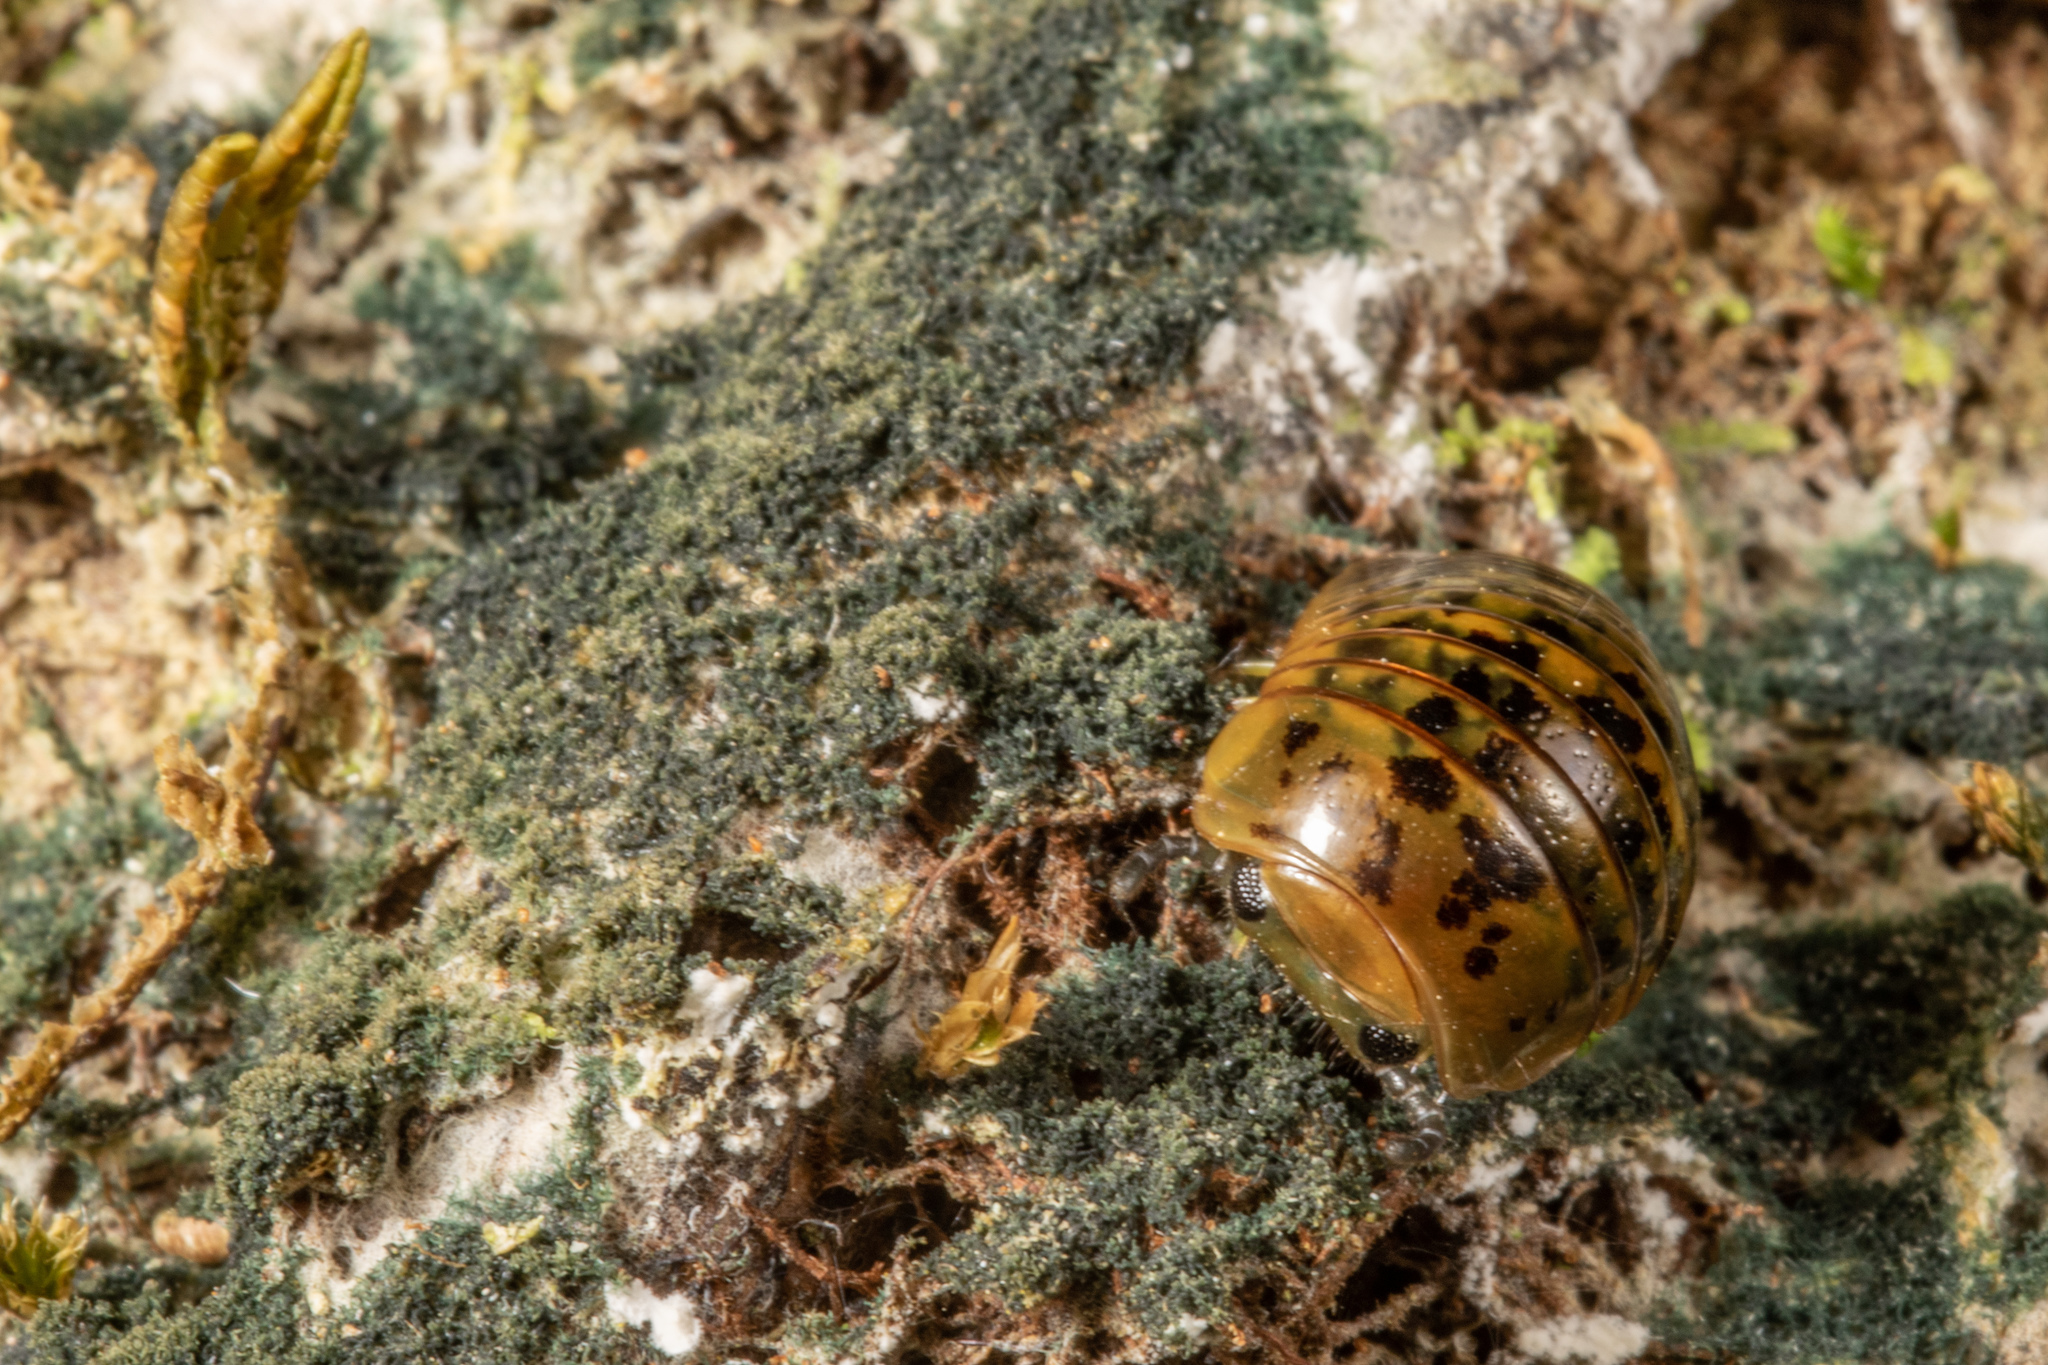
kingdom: Animalia
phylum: Arthropoda
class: Diplopoda
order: Sphaerotheriida
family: Procyliosomatidae
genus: Procyliosoma
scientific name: Procyliosoma delacyi
